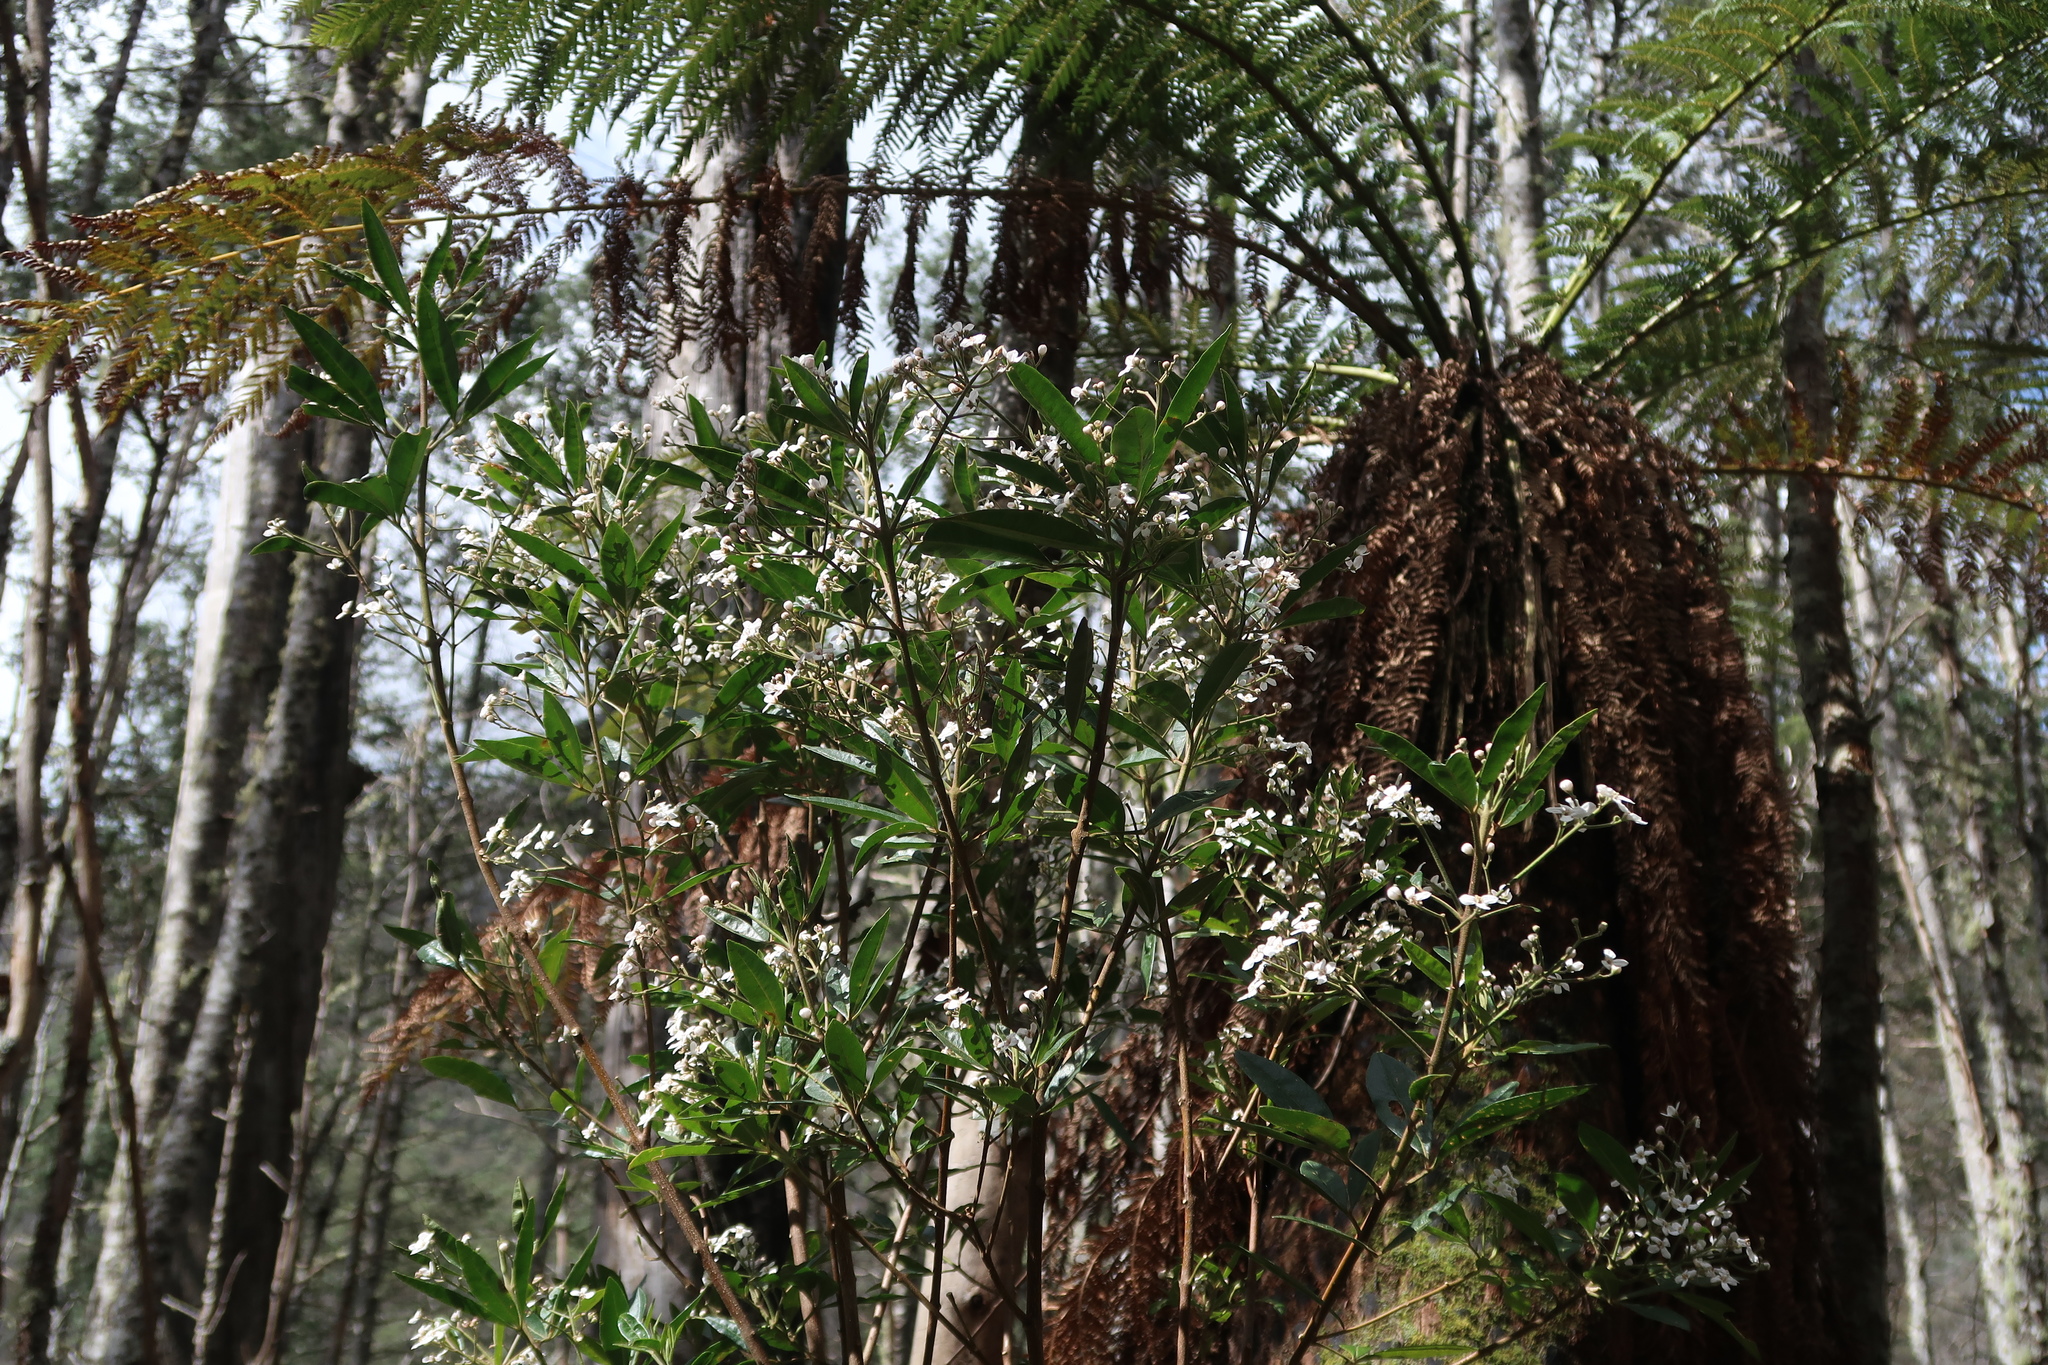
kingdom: Plantae
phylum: Tracheophyta
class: Magnoliopsida
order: Sapindales
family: Rutaceae
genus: Zieria
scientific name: Zieria arborescens
